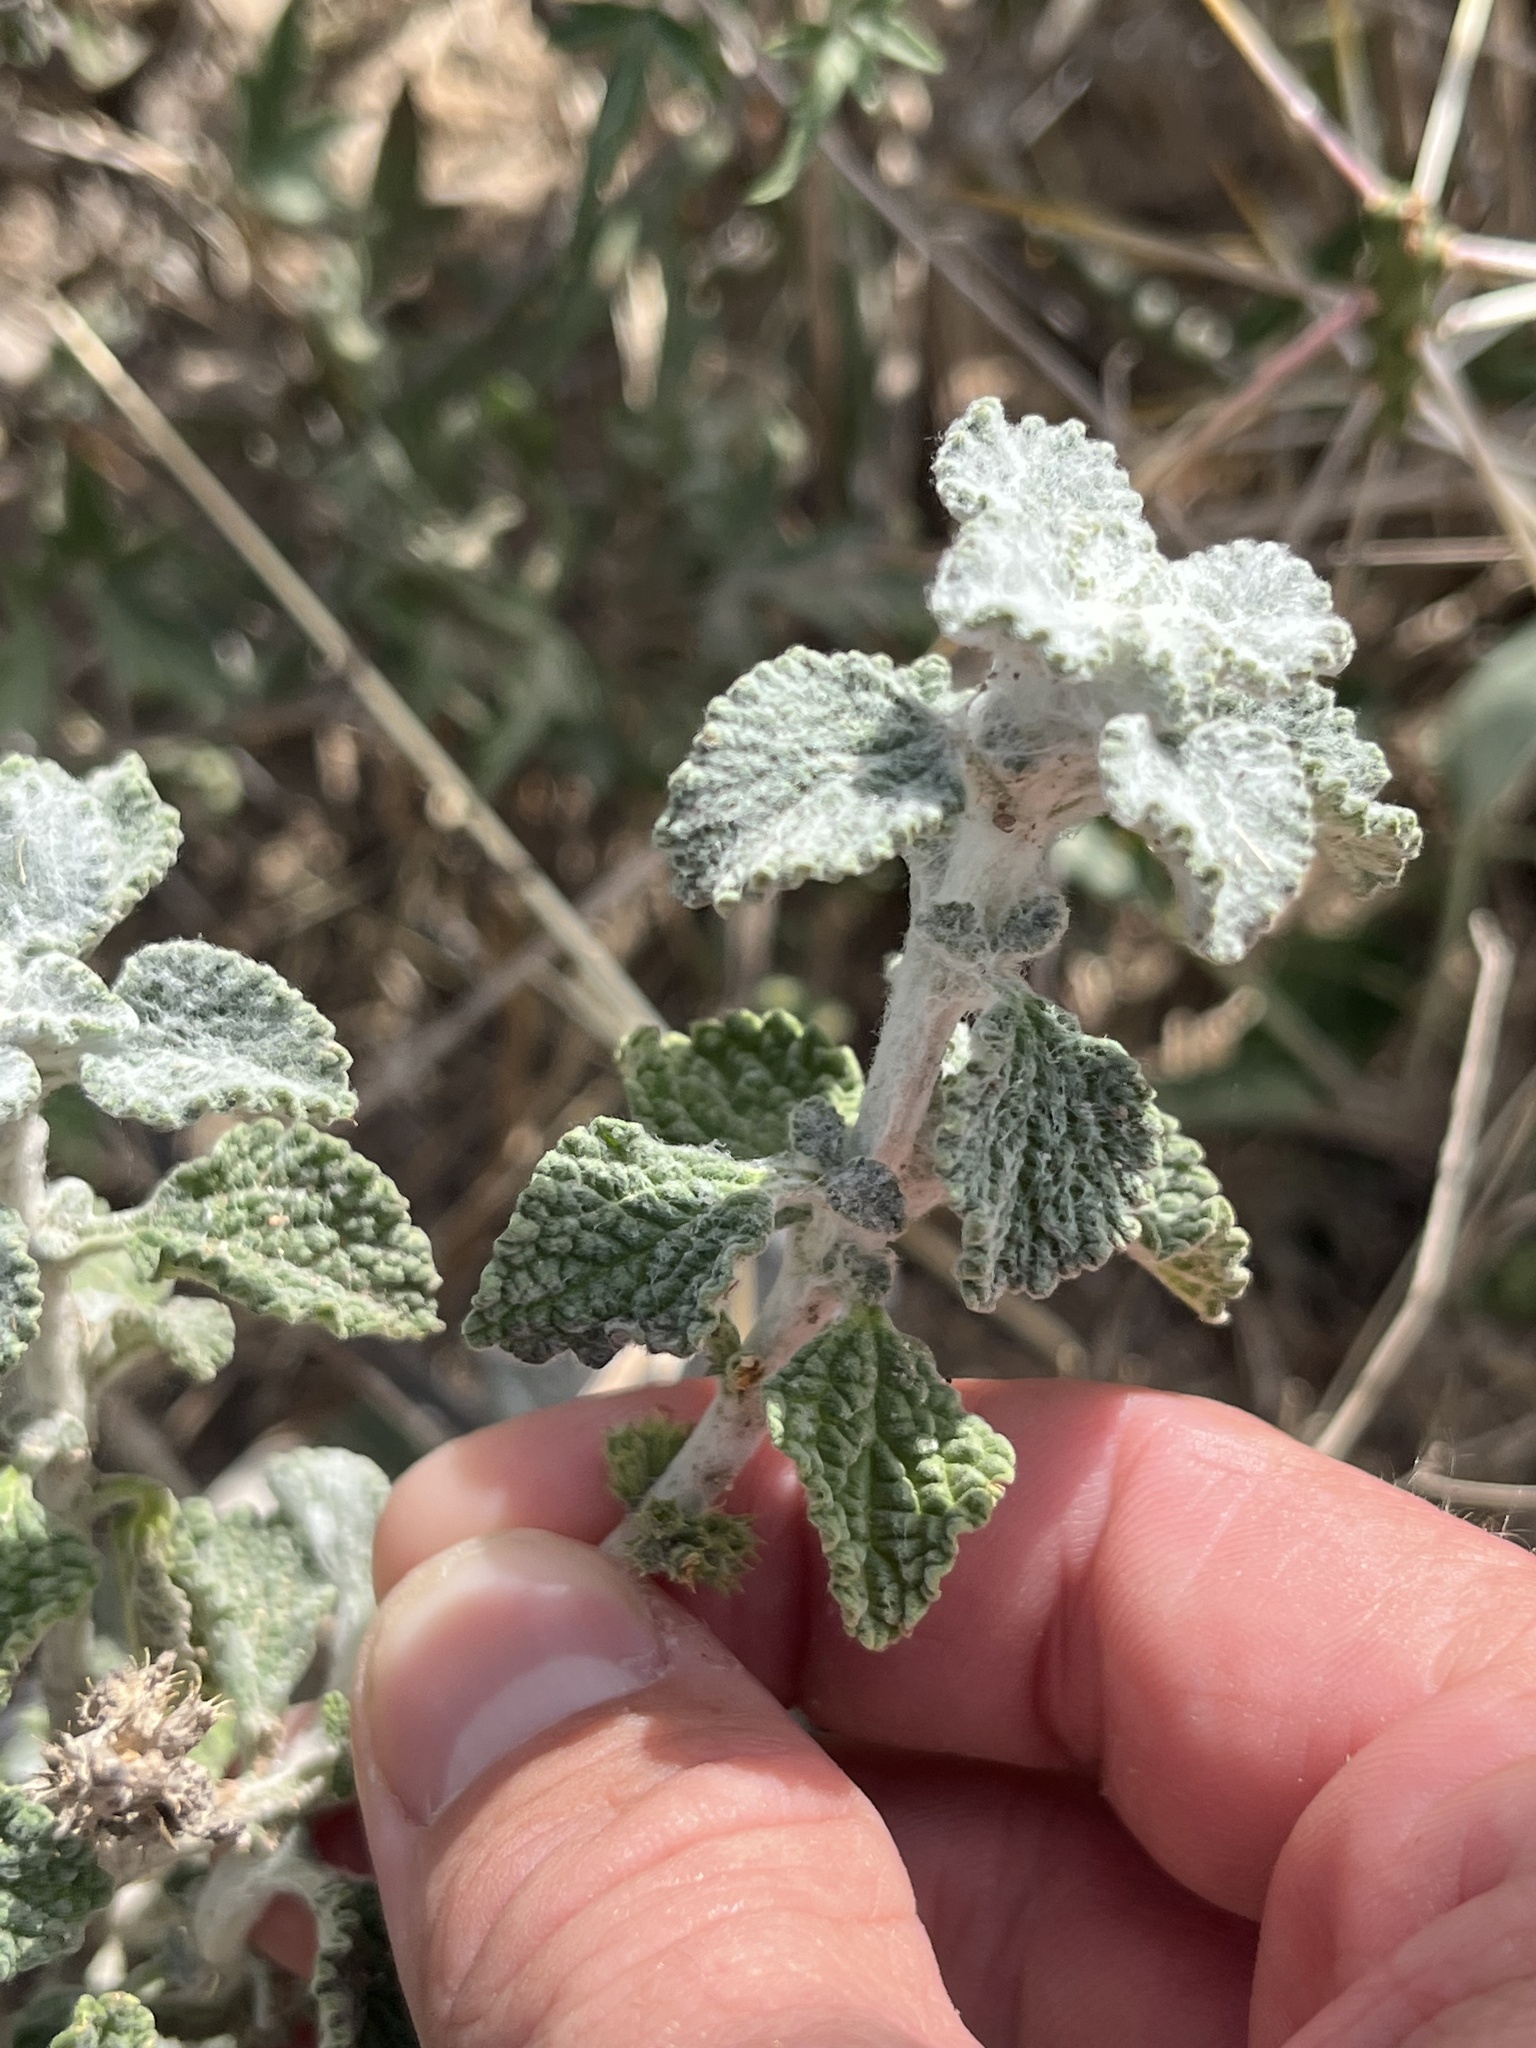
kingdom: Plantae
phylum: Tracheophyta
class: Magnoliopsida
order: Lamiales
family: Lamiaceae
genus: Marrubium
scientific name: Marrubium vulgare
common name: Horehound
